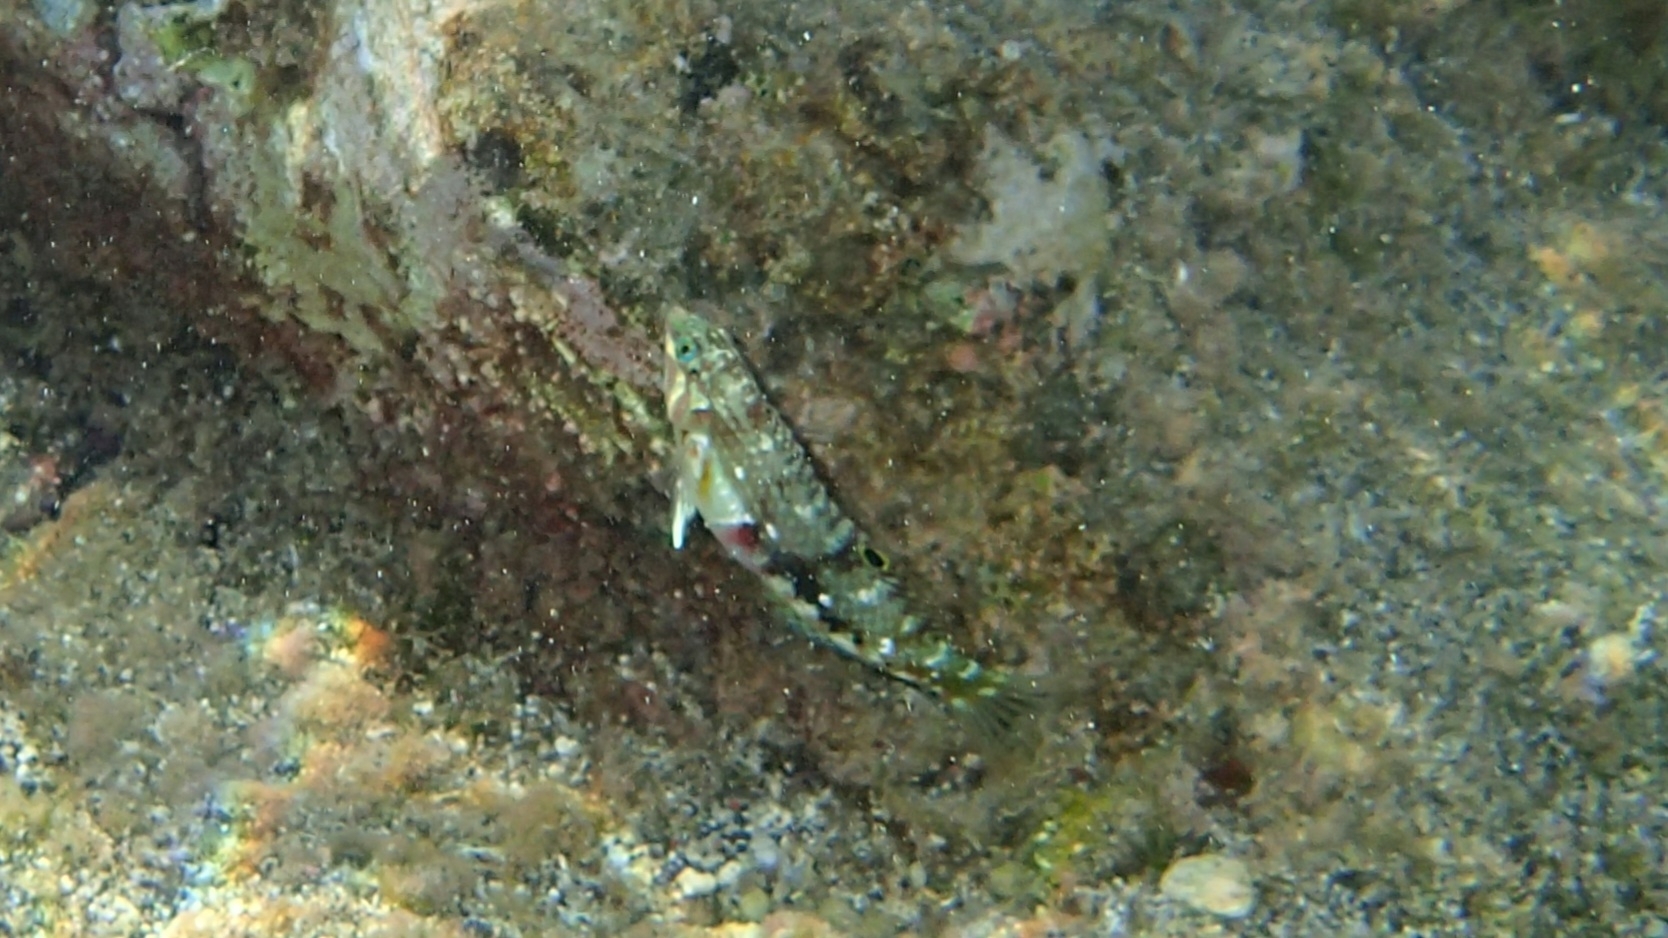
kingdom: Animalia
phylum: Chordata
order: Perciformes
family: Labridae
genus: Halichoeres
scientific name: Halichoeres nebulosus
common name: Clouded wrasse
